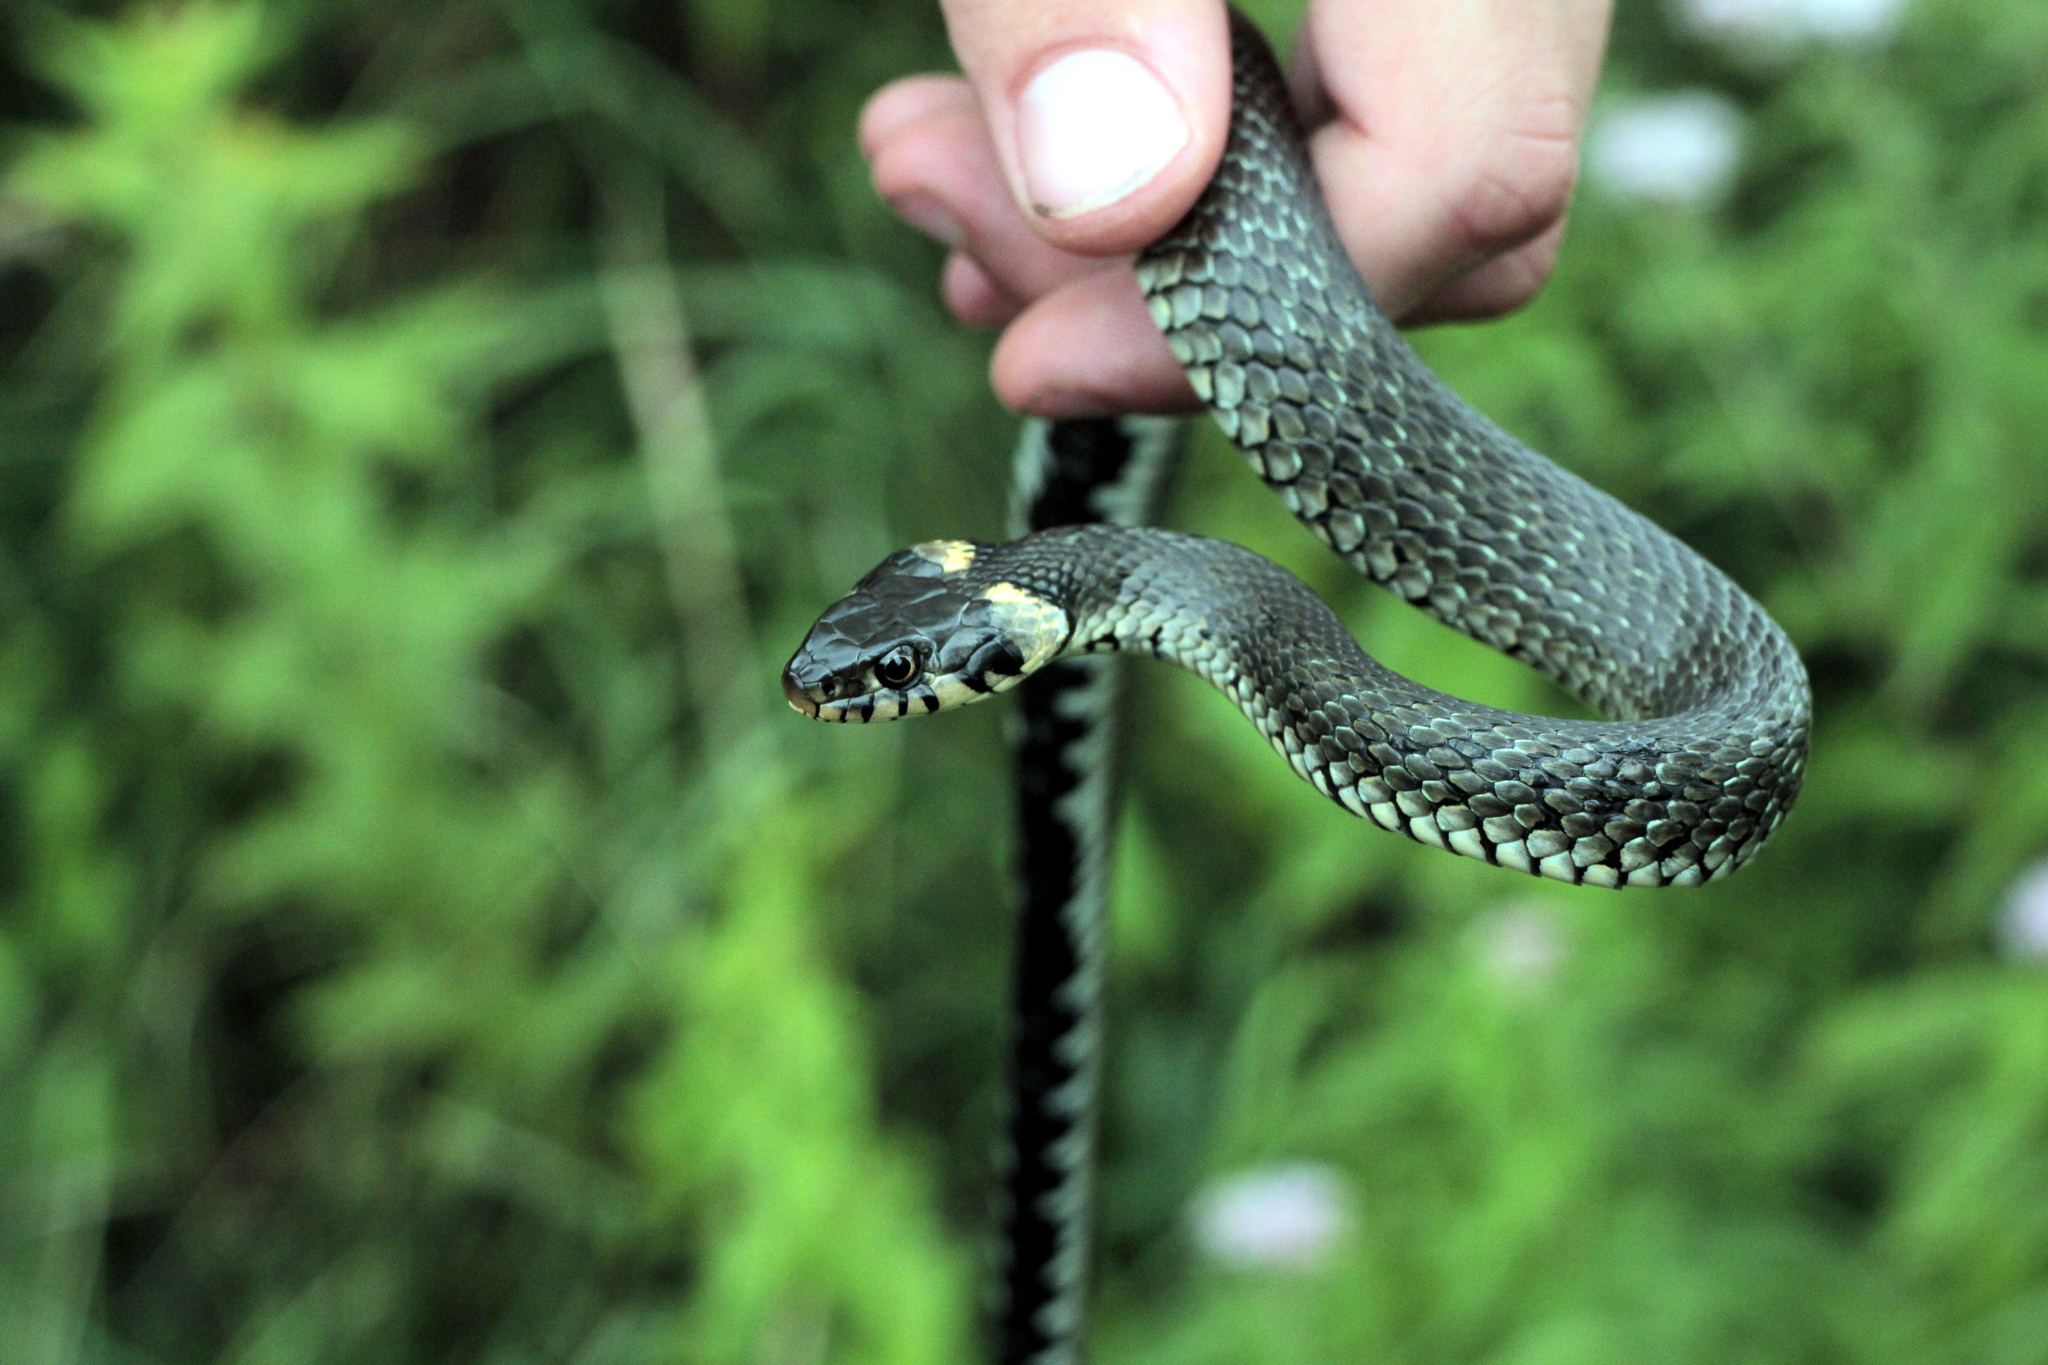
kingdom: Animalia
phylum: Chordata
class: Squamata
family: Colubridae
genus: Natrix
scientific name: Natrix natrix
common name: Grass snake
